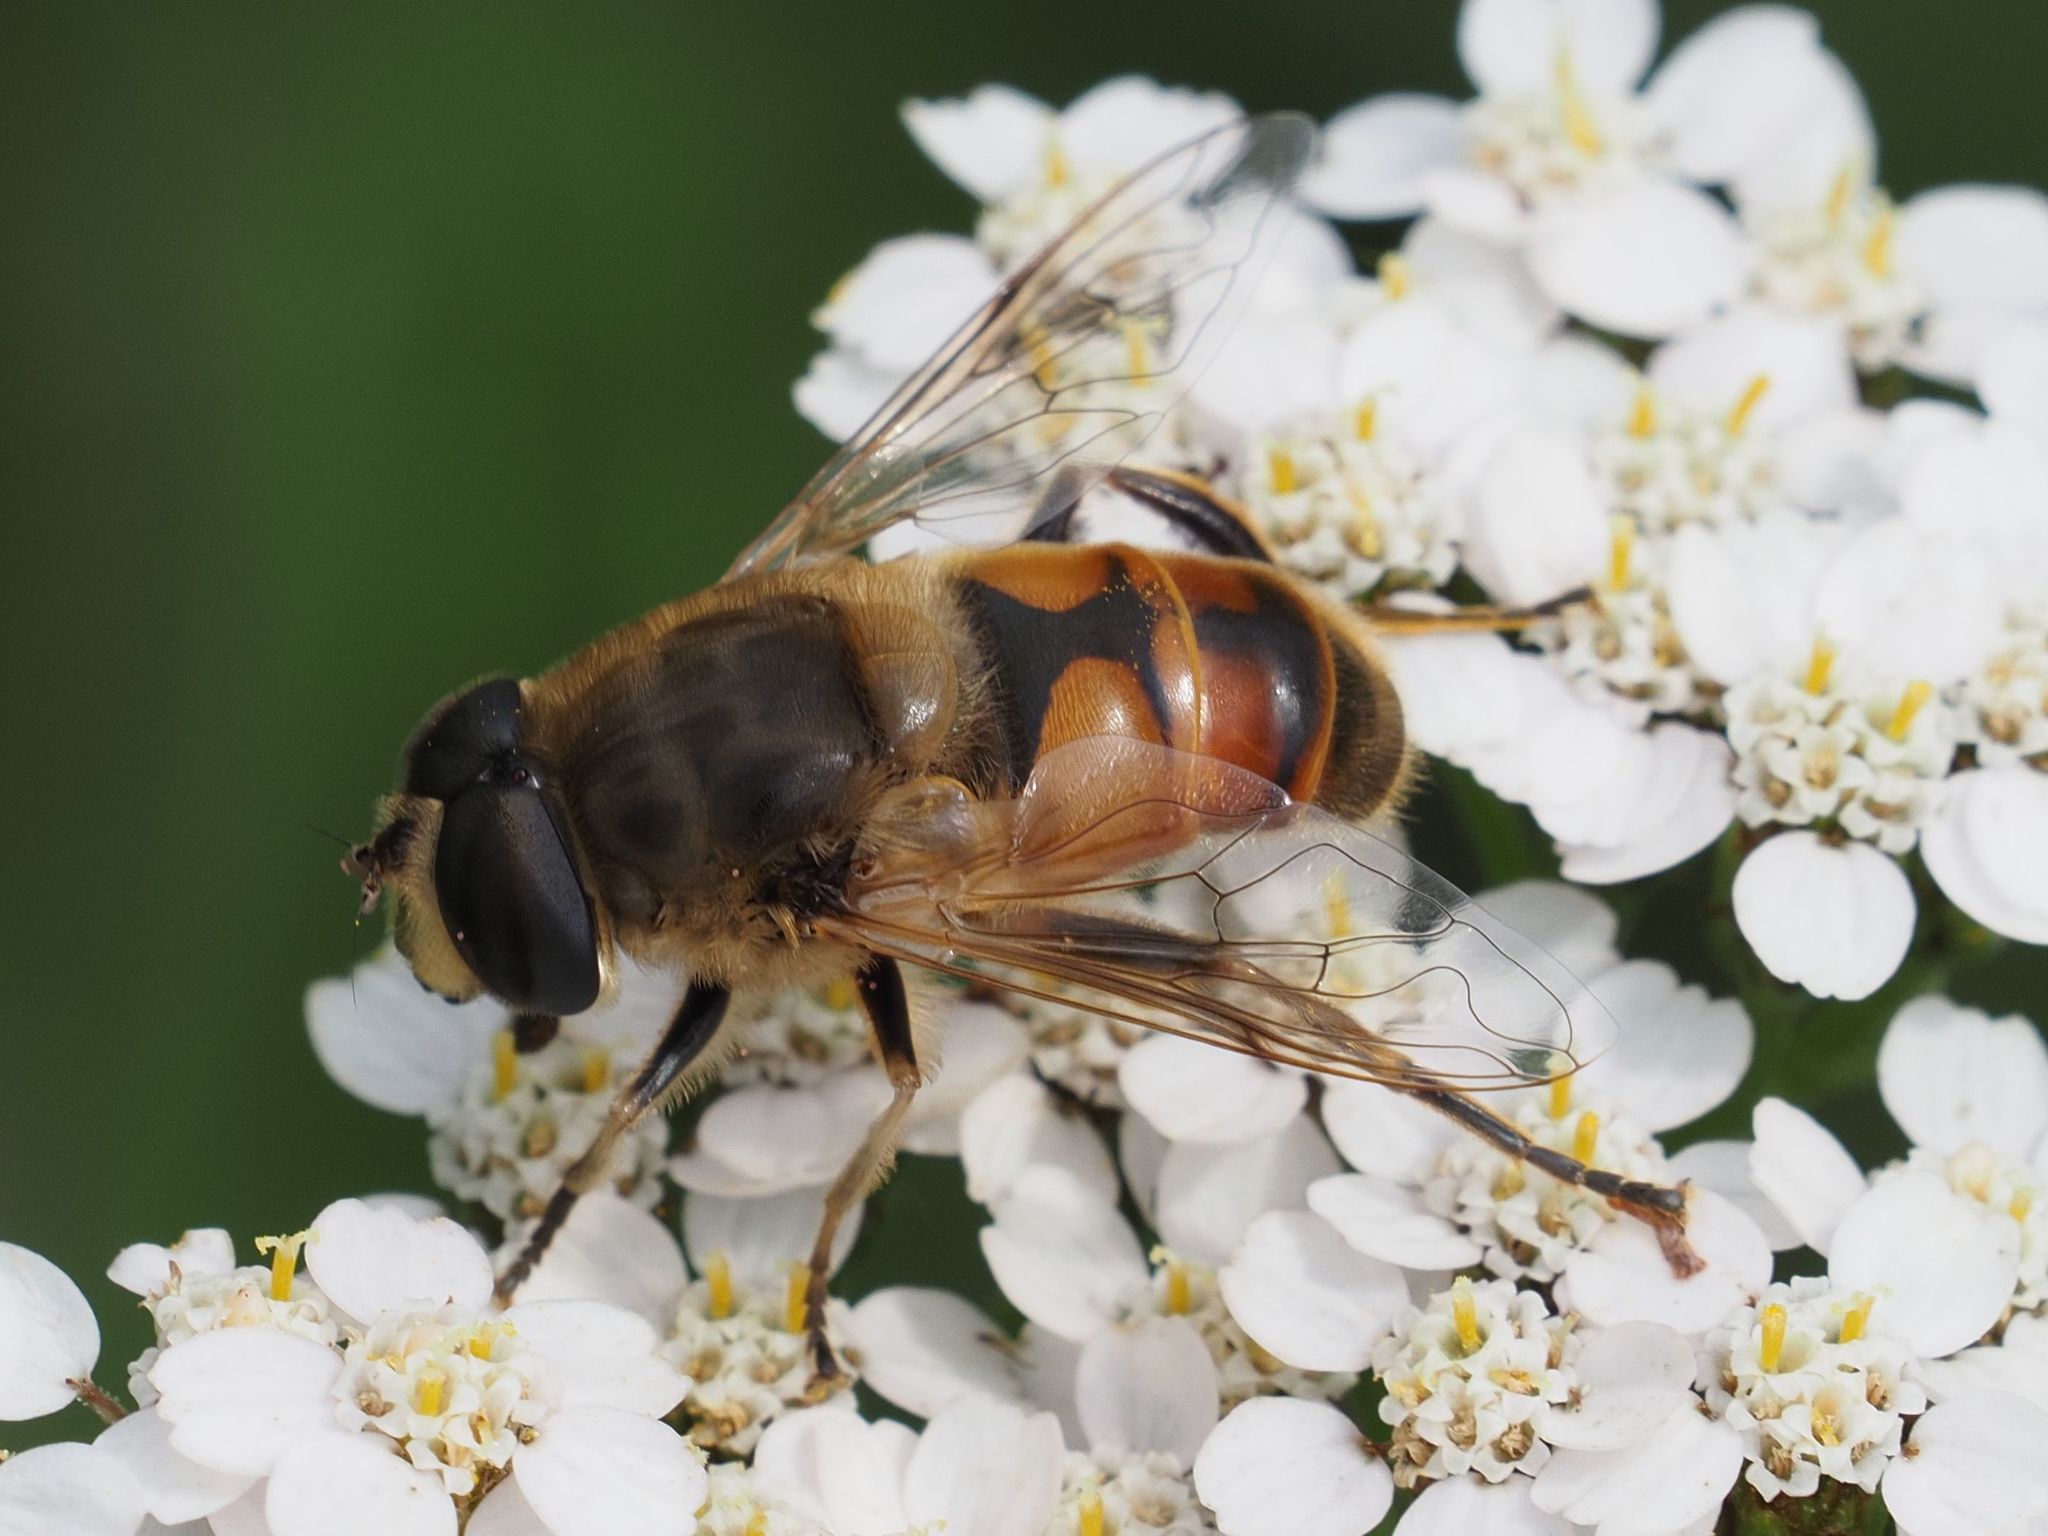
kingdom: Animalia
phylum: Arthropoda
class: Insecta
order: Diptera
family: Syrphidae
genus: Eristalis
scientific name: Eristalis tenax
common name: Drone fly
